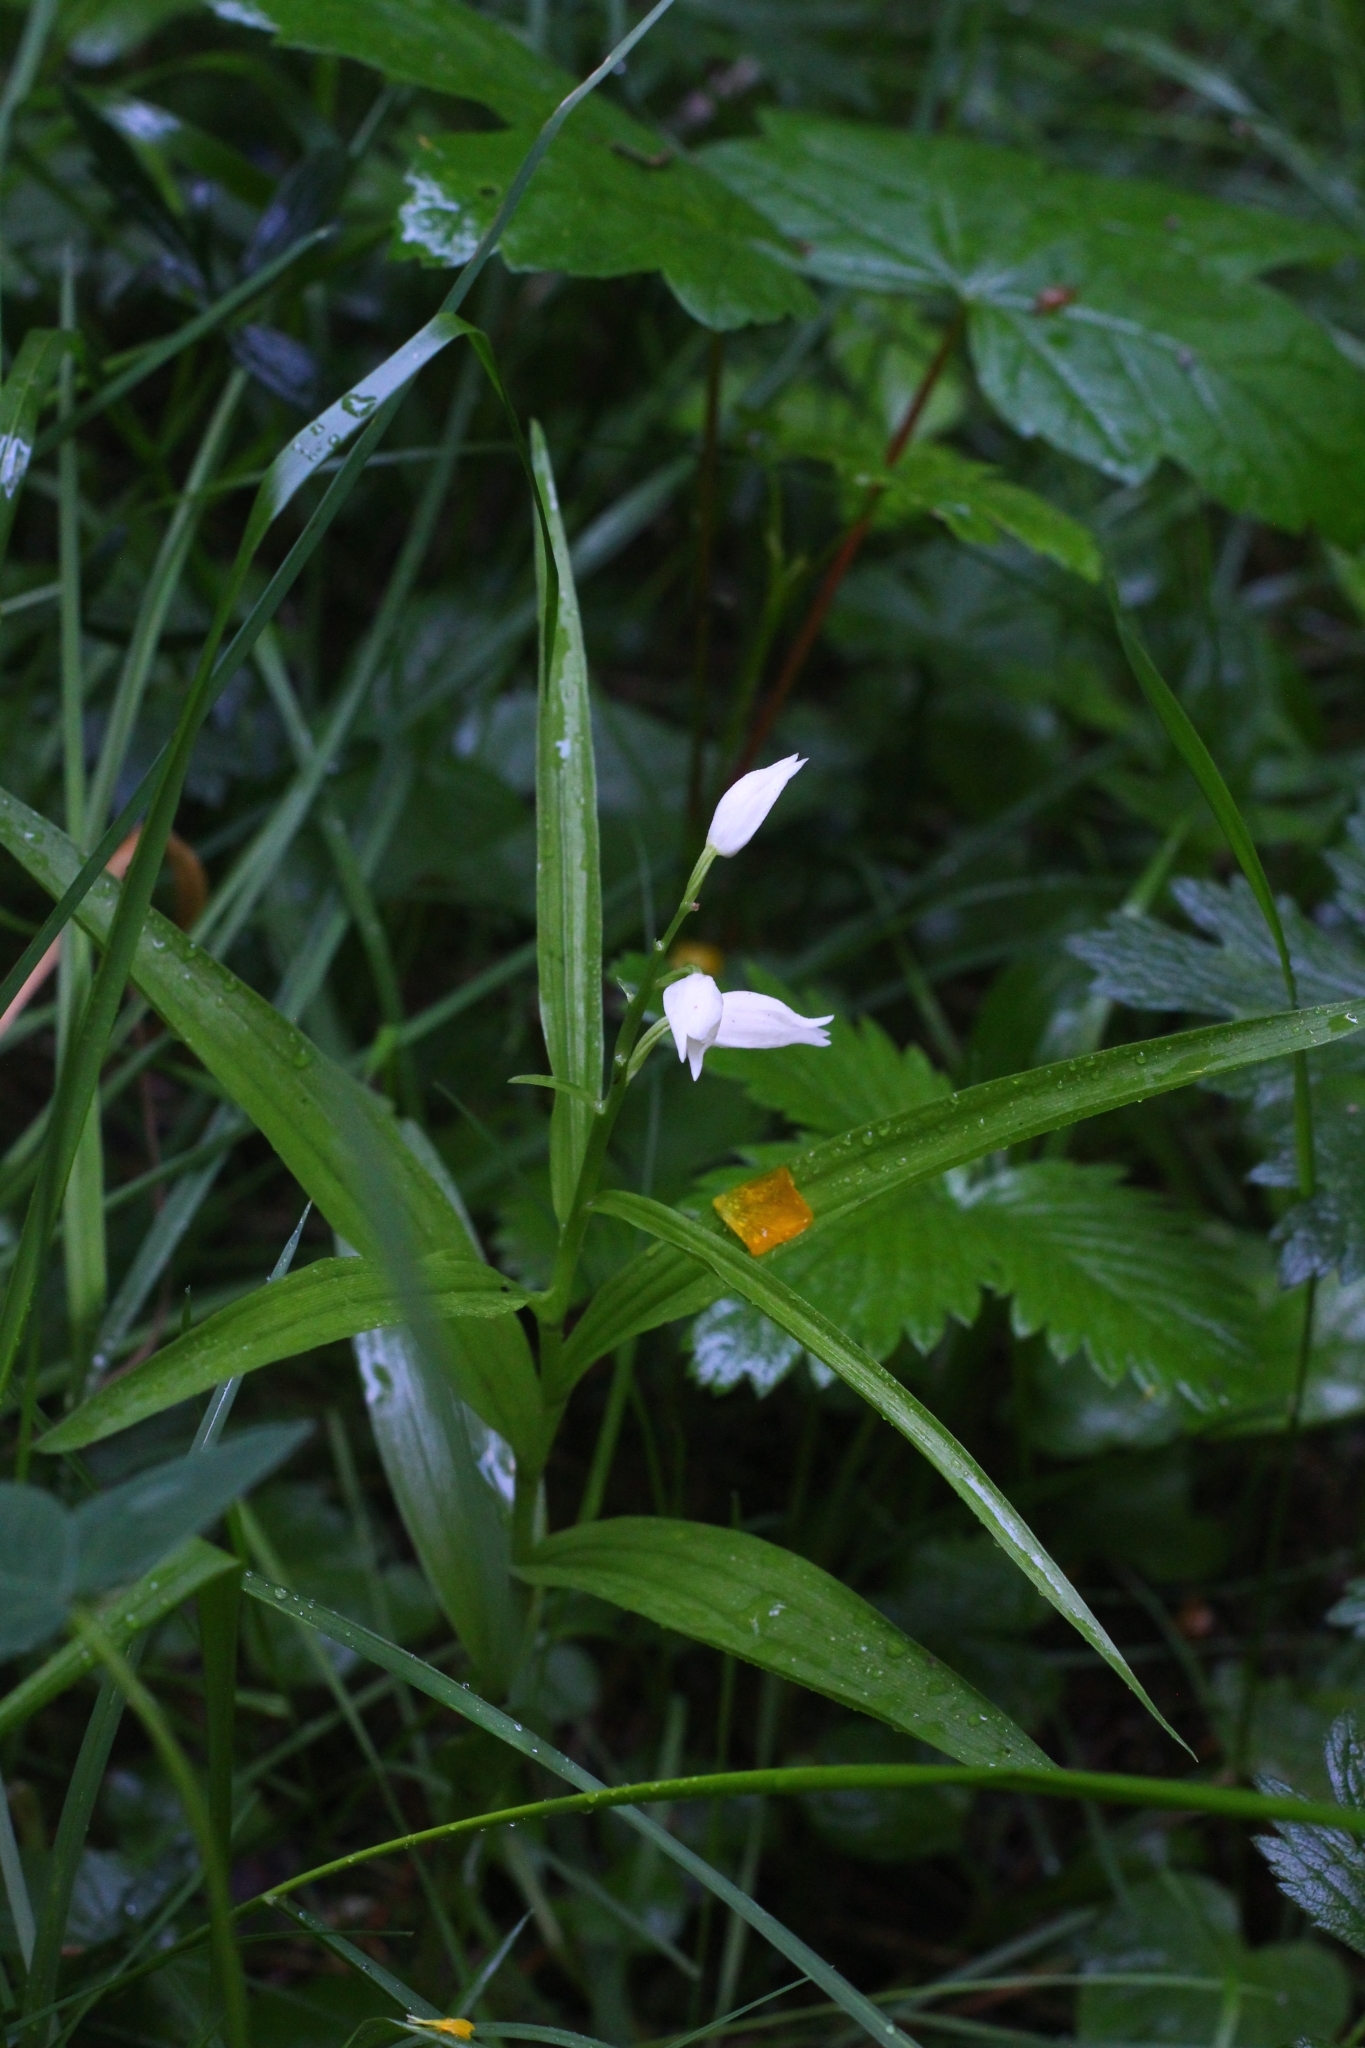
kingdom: Plantae
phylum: Tracheophyta
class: Liliopsida
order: Asparagales
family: Orchidaceae
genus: Cephalanthera
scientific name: Cephalanthera longifolia
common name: Narrow-leaved helleborine
